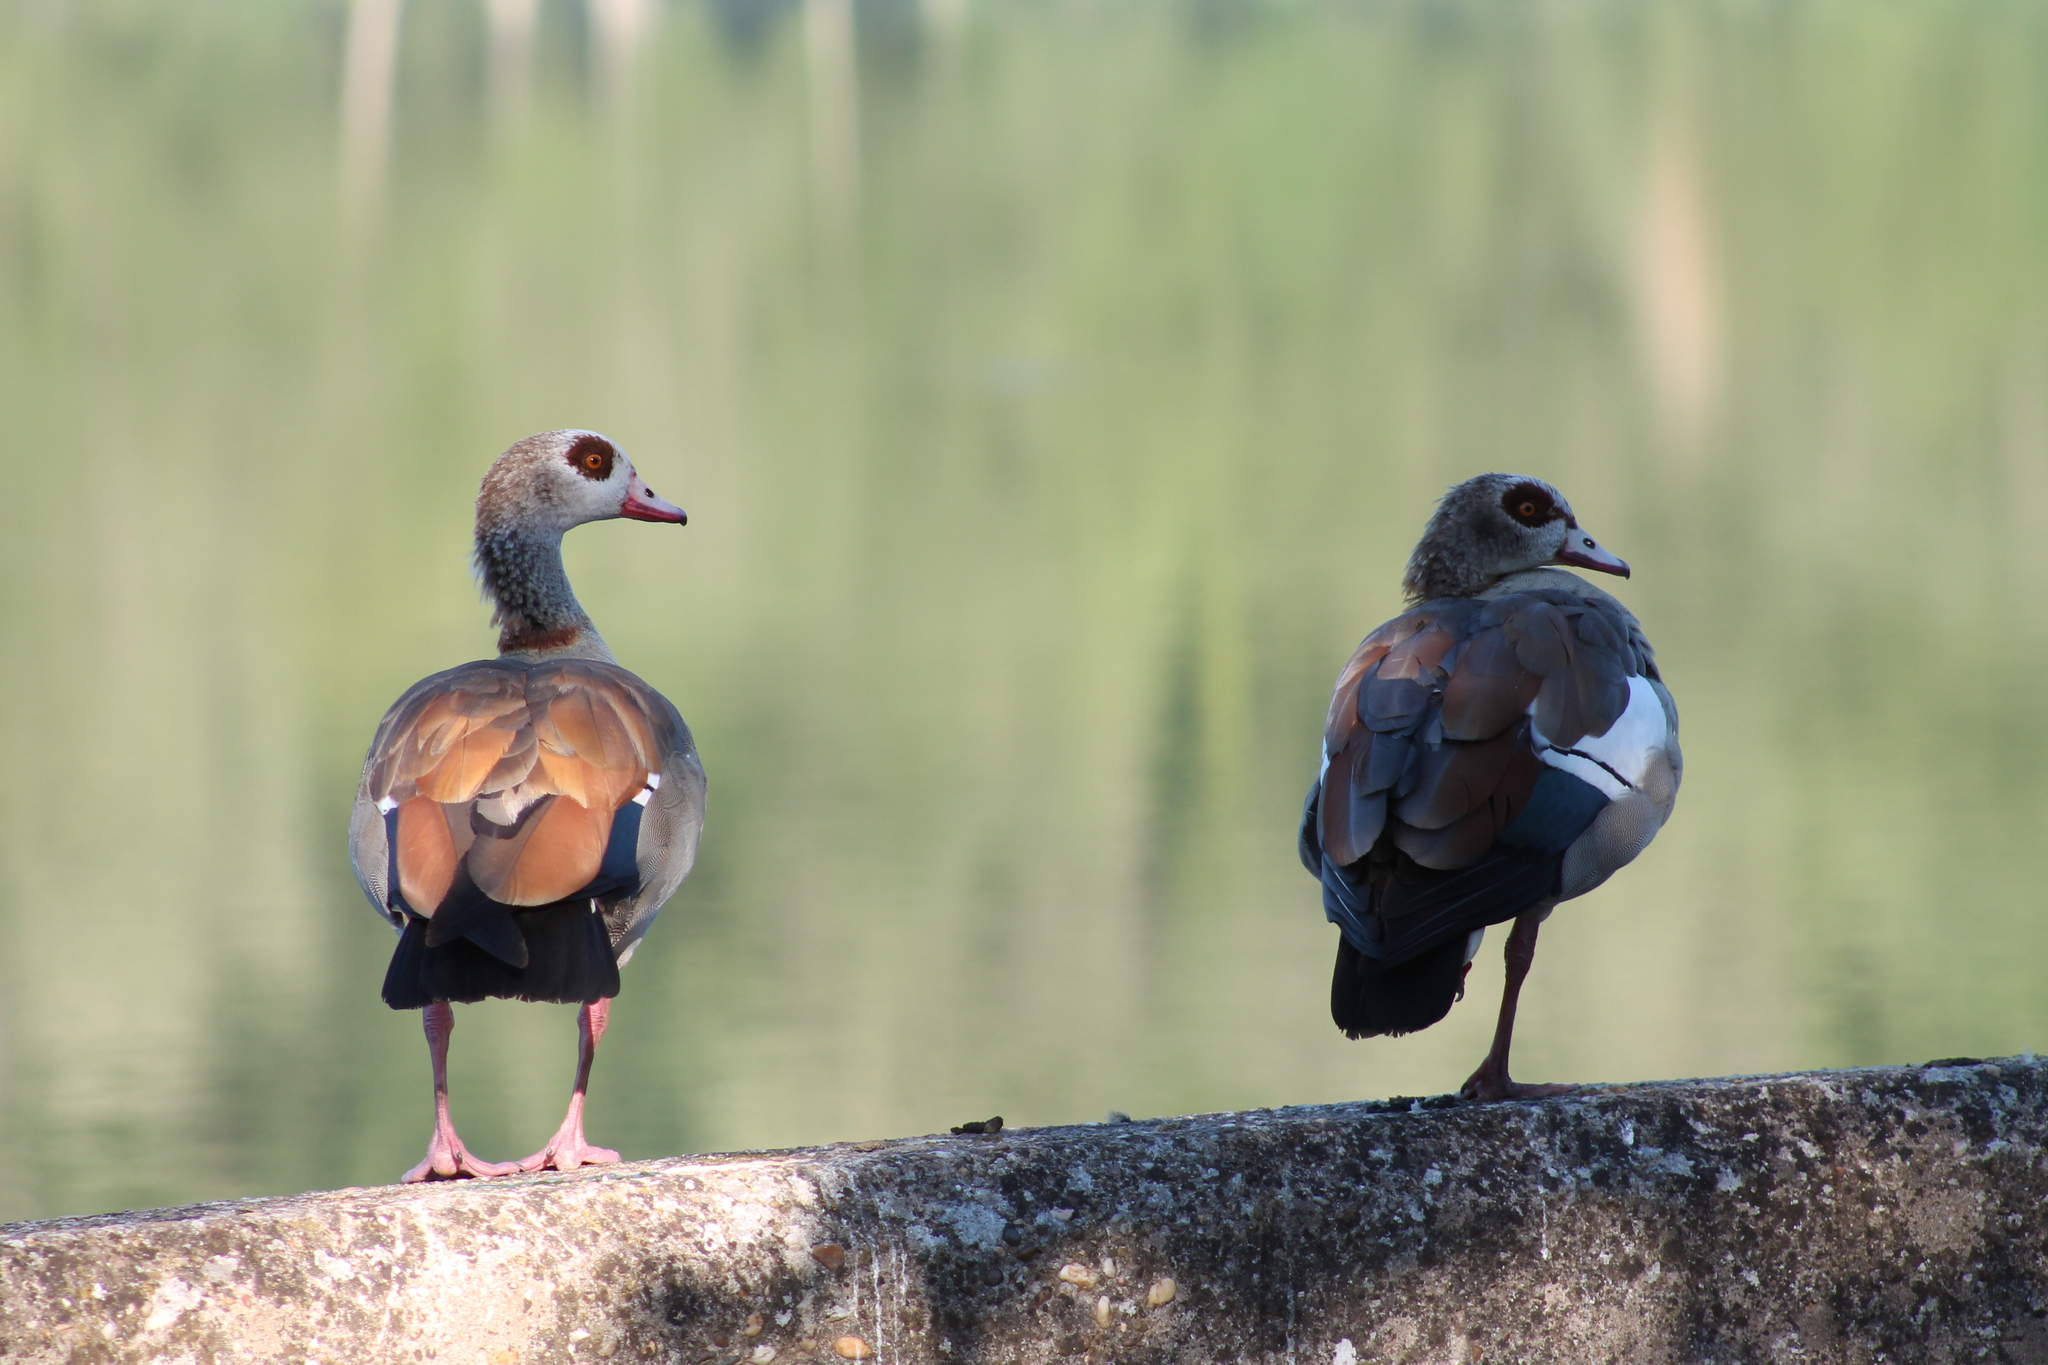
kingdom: Animalia
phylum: Chordata
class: Aves
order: Anseriformes
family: Anatidae
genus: Alopochen
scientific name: Alopochen aegyptiaca
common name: Egyptian goose
